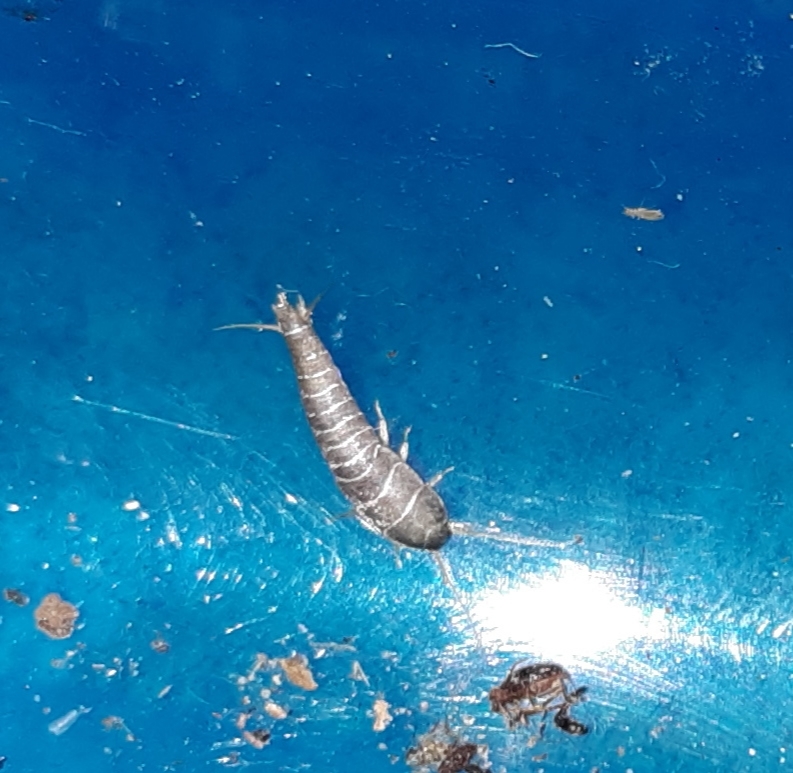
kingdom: Animalia
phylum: Arthropoda
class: Insecta
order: Zygentoma
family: Lepismatidae
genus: Lepisma
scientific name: Lepisma saccharinum
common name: Silverfish
